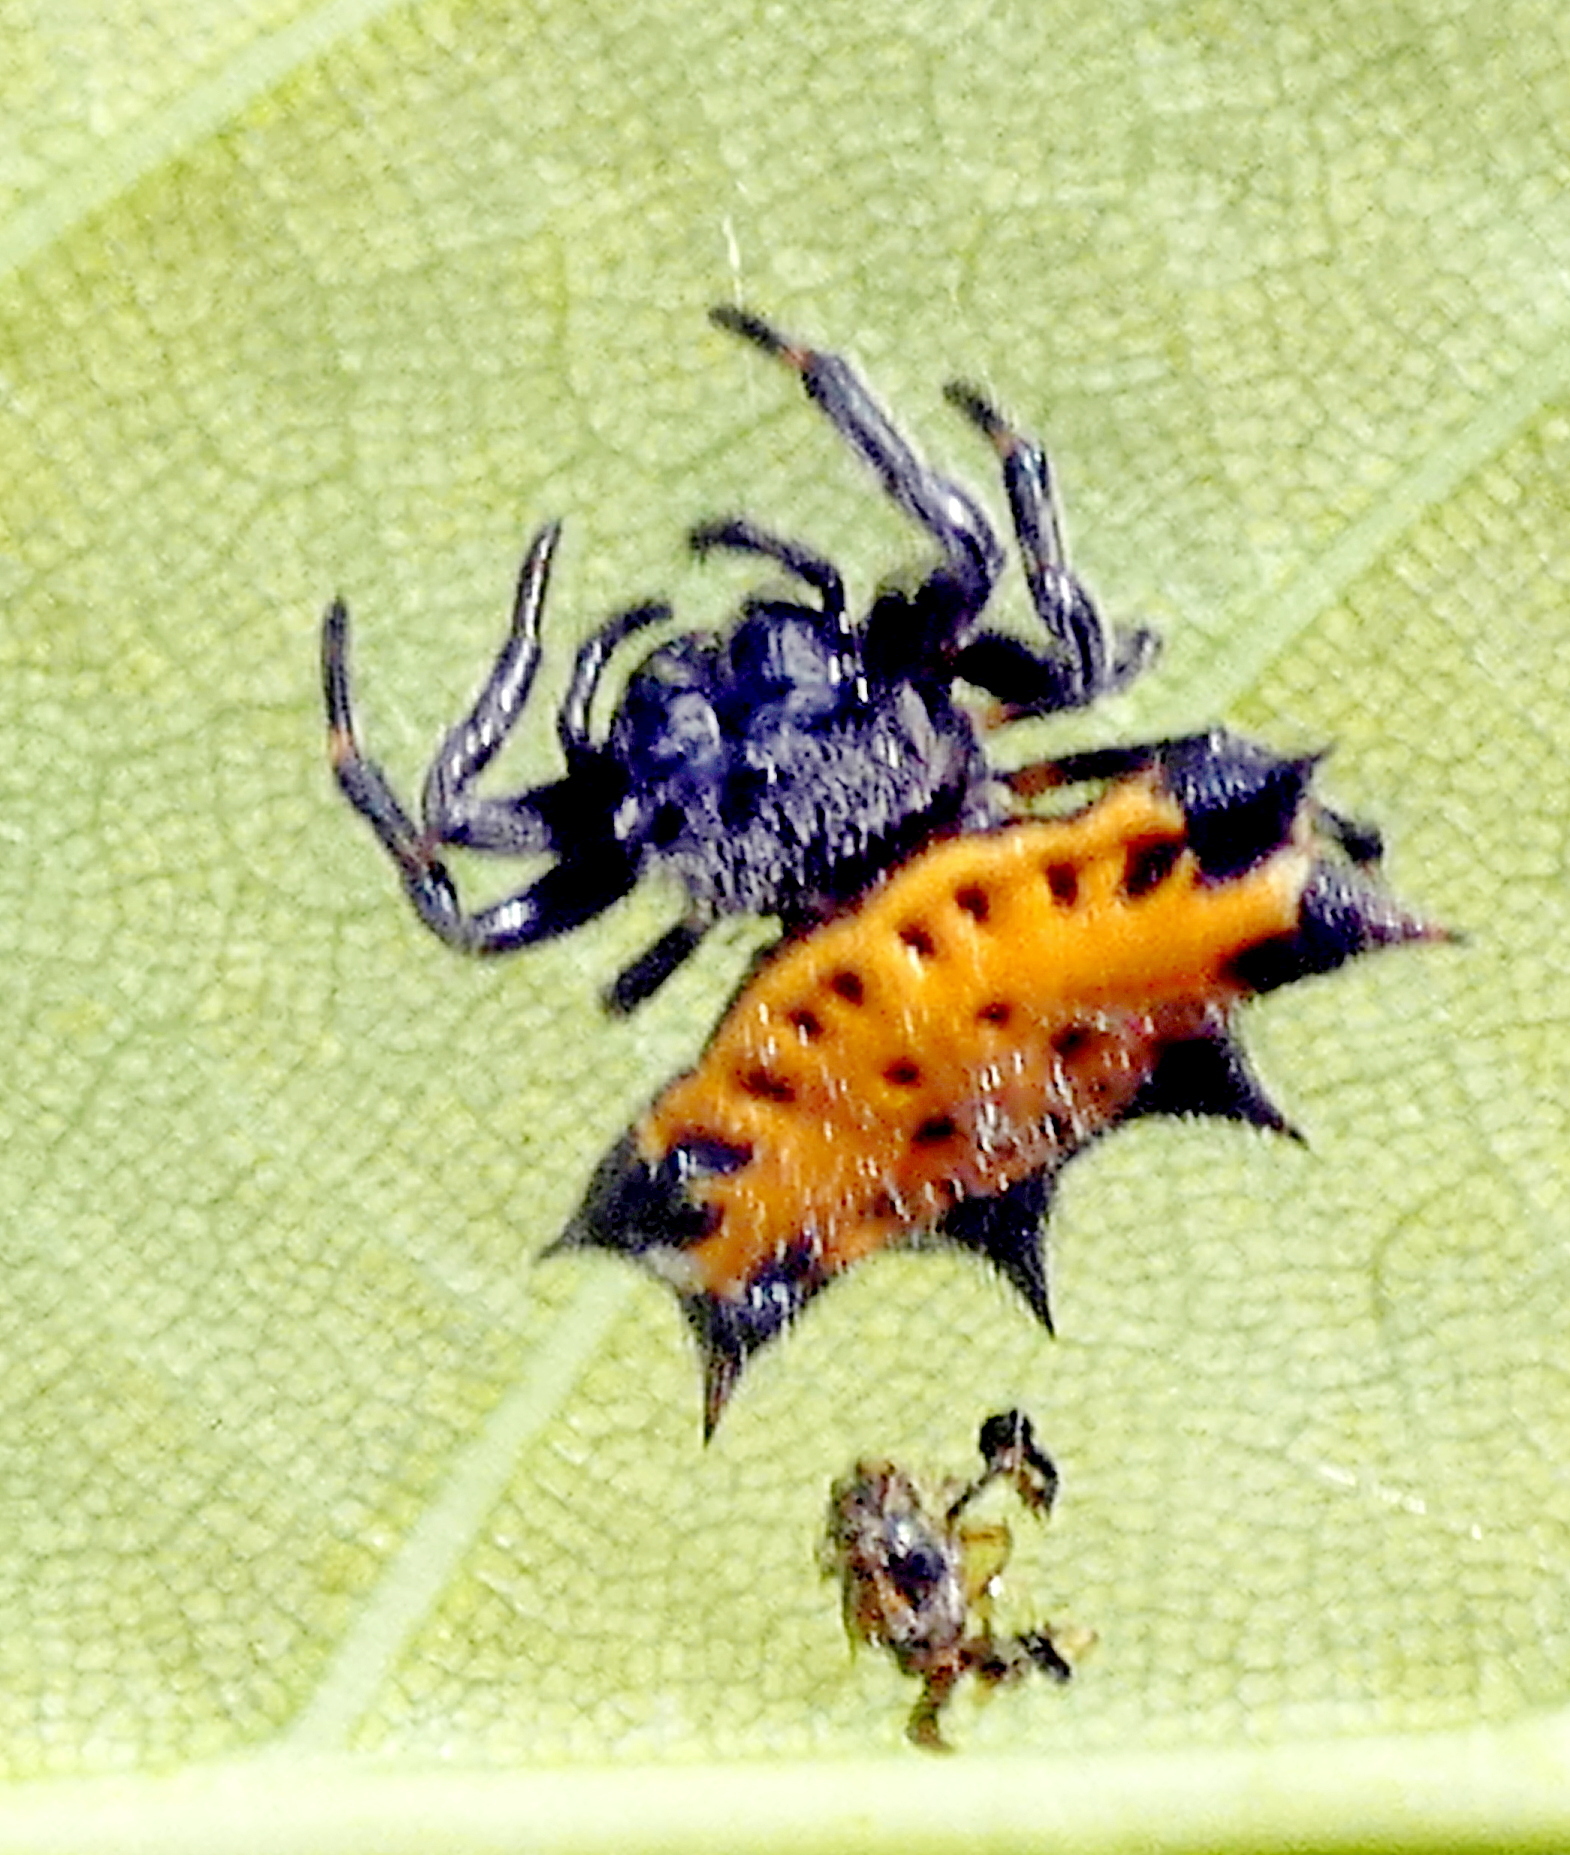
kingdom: Animalia
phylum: Arthropoda
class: Arachnida
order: Araneae
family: Araneidae
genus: Gasteracantha
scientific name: Gasteracantha cancriformis
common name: Orb weavers
